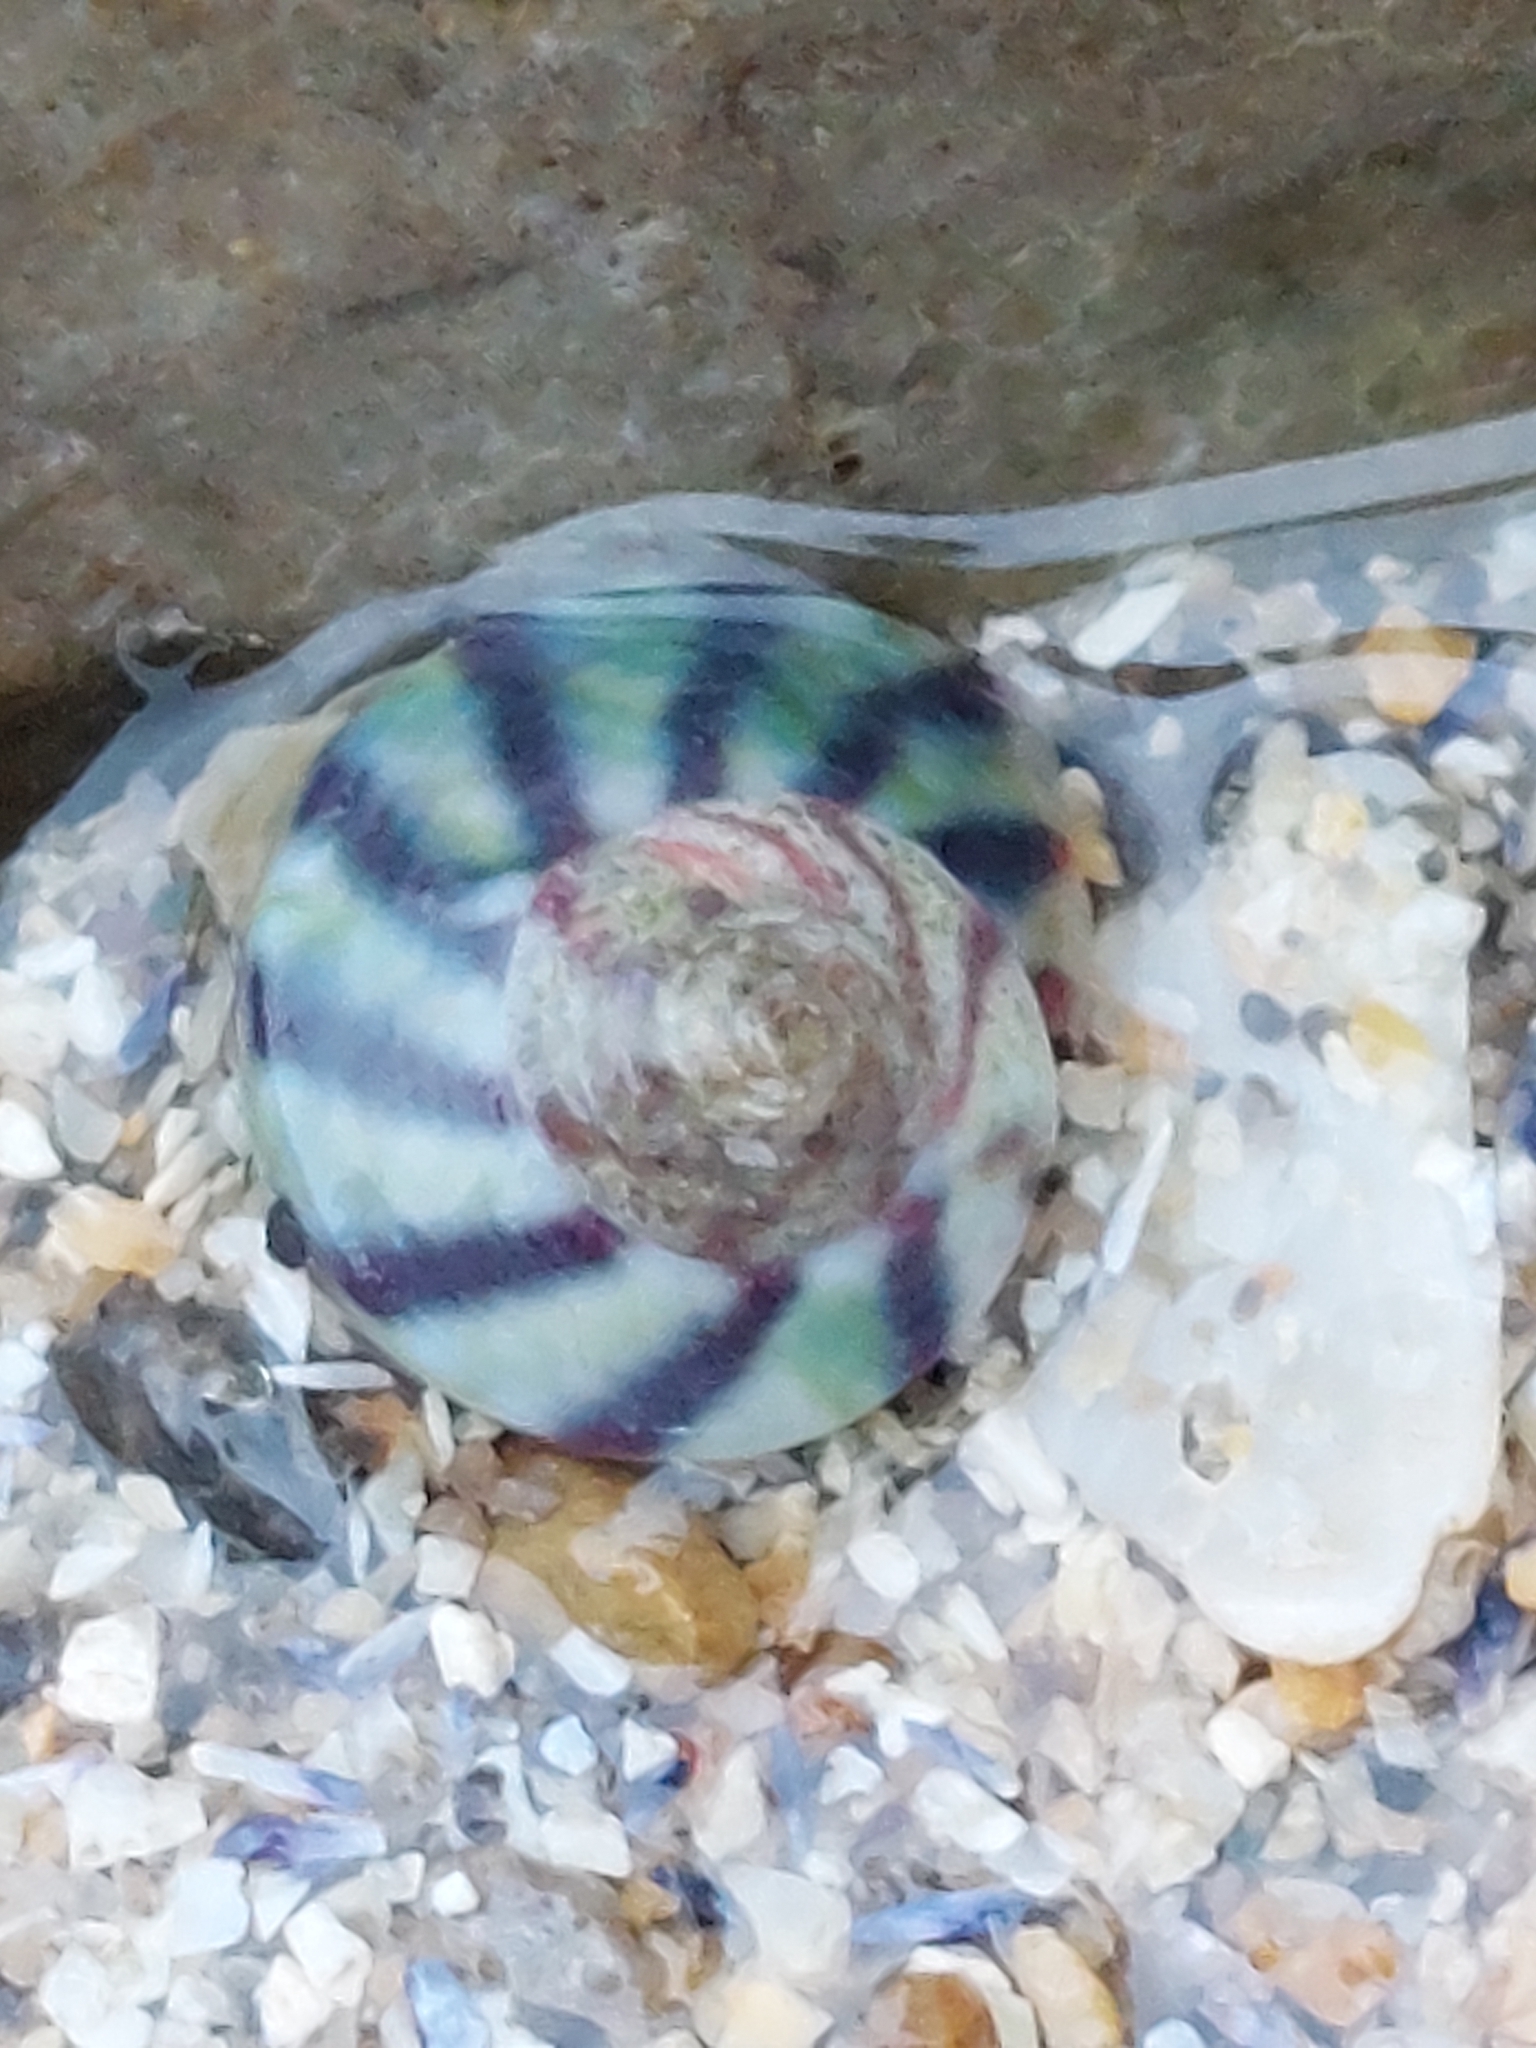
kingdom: Animalia
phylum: Mollusca
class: Gastropoda
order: Trochida
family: Trochidae
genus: Steromphala
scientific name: Steromphala umbilicalis
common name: Flat top shell
